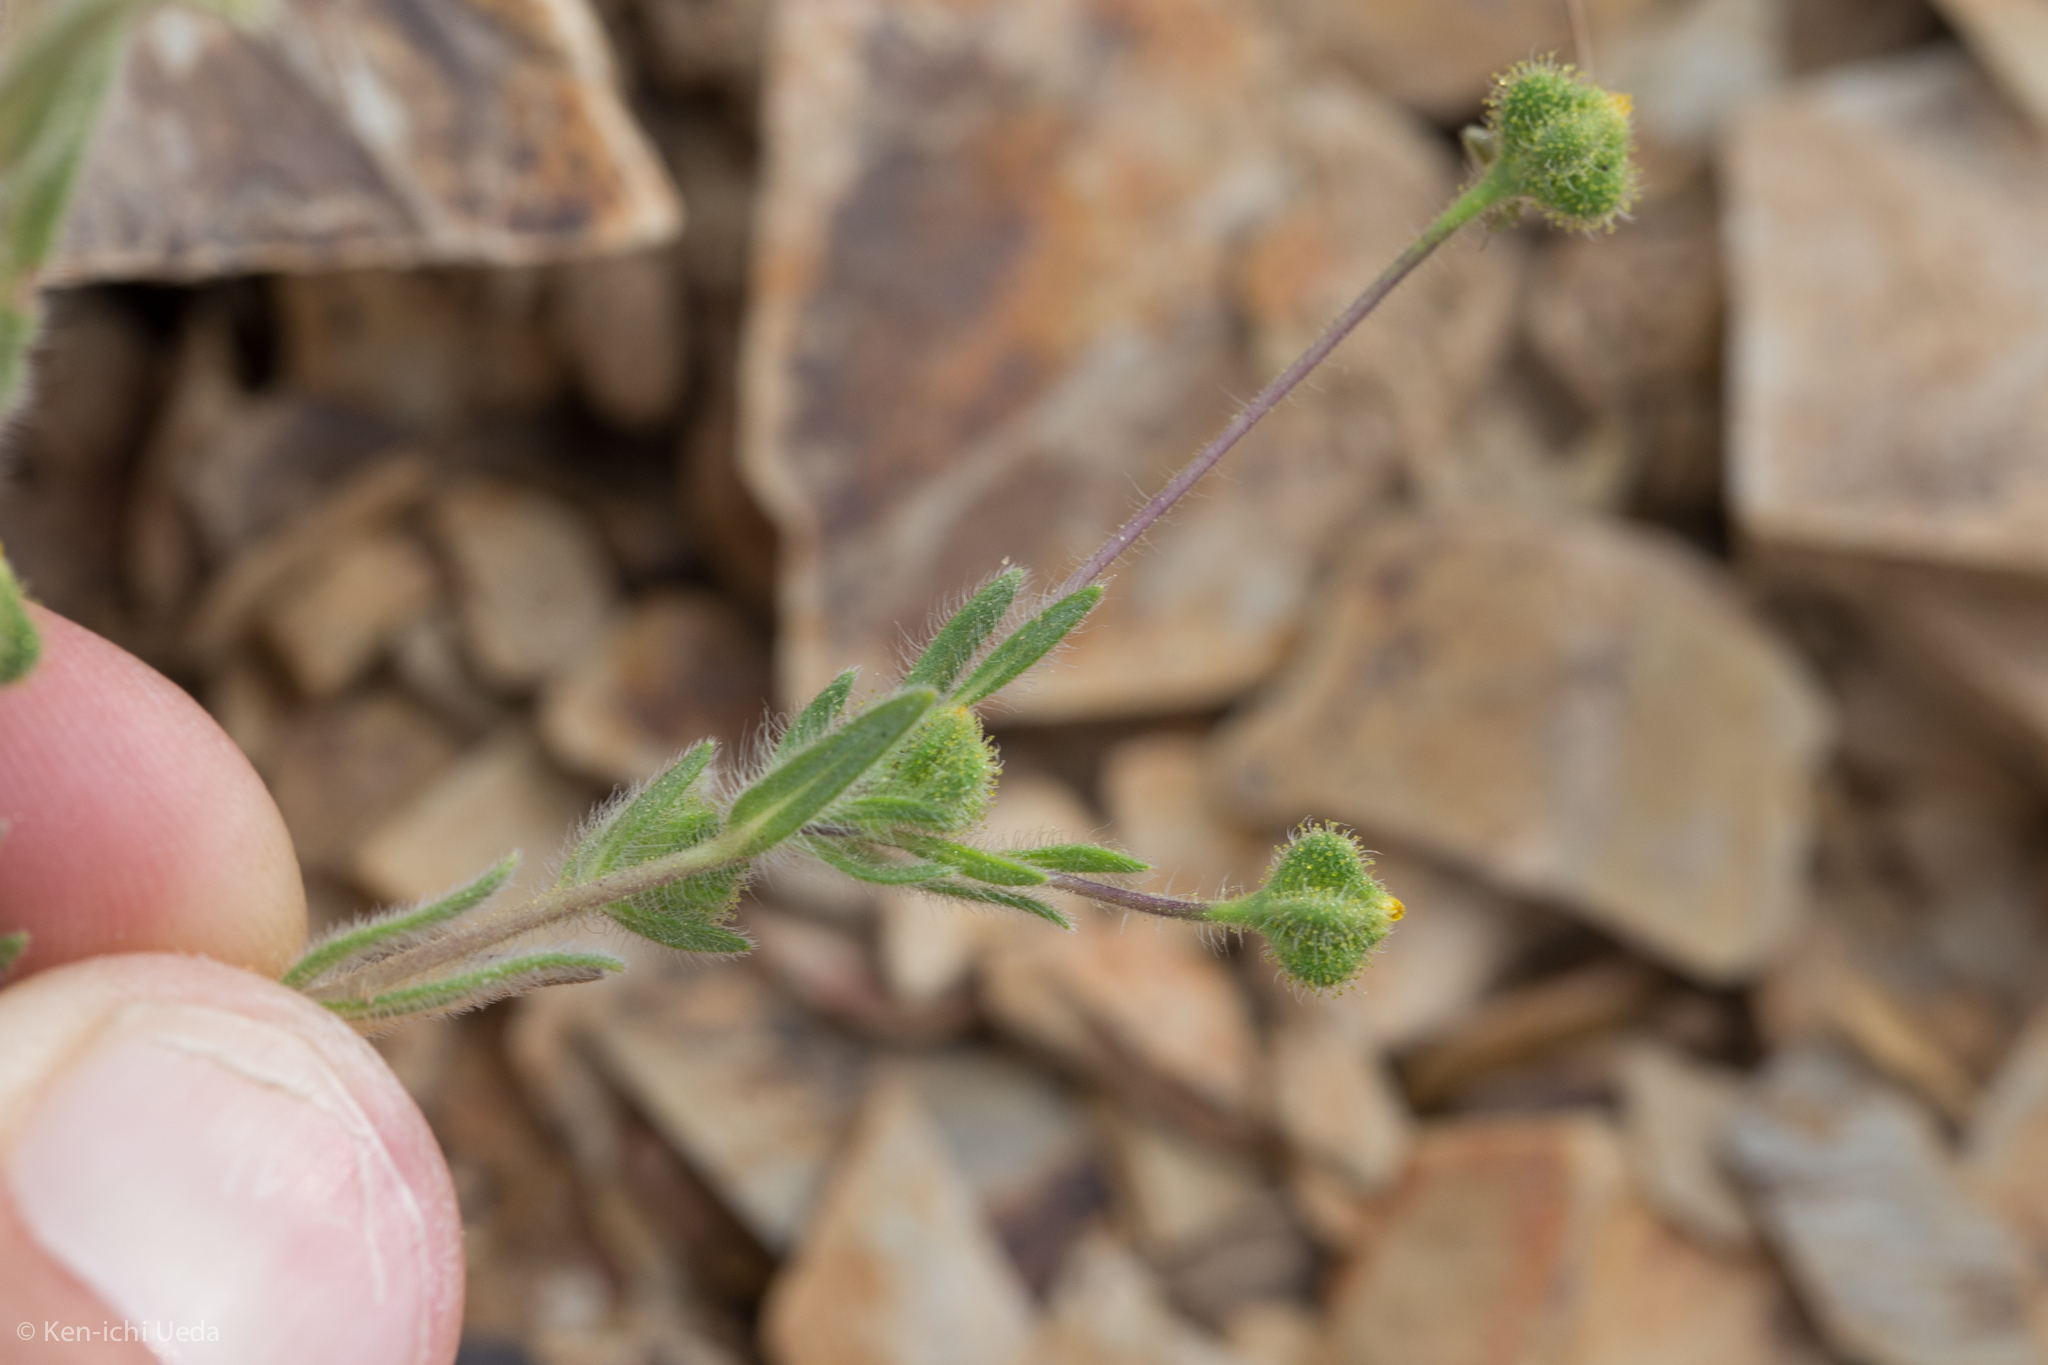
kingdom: Plantae
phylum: Tracheophyta
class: Magnoliopsida
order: Asterales
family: Asteraceae
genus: Madia
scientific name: Madia exigua
